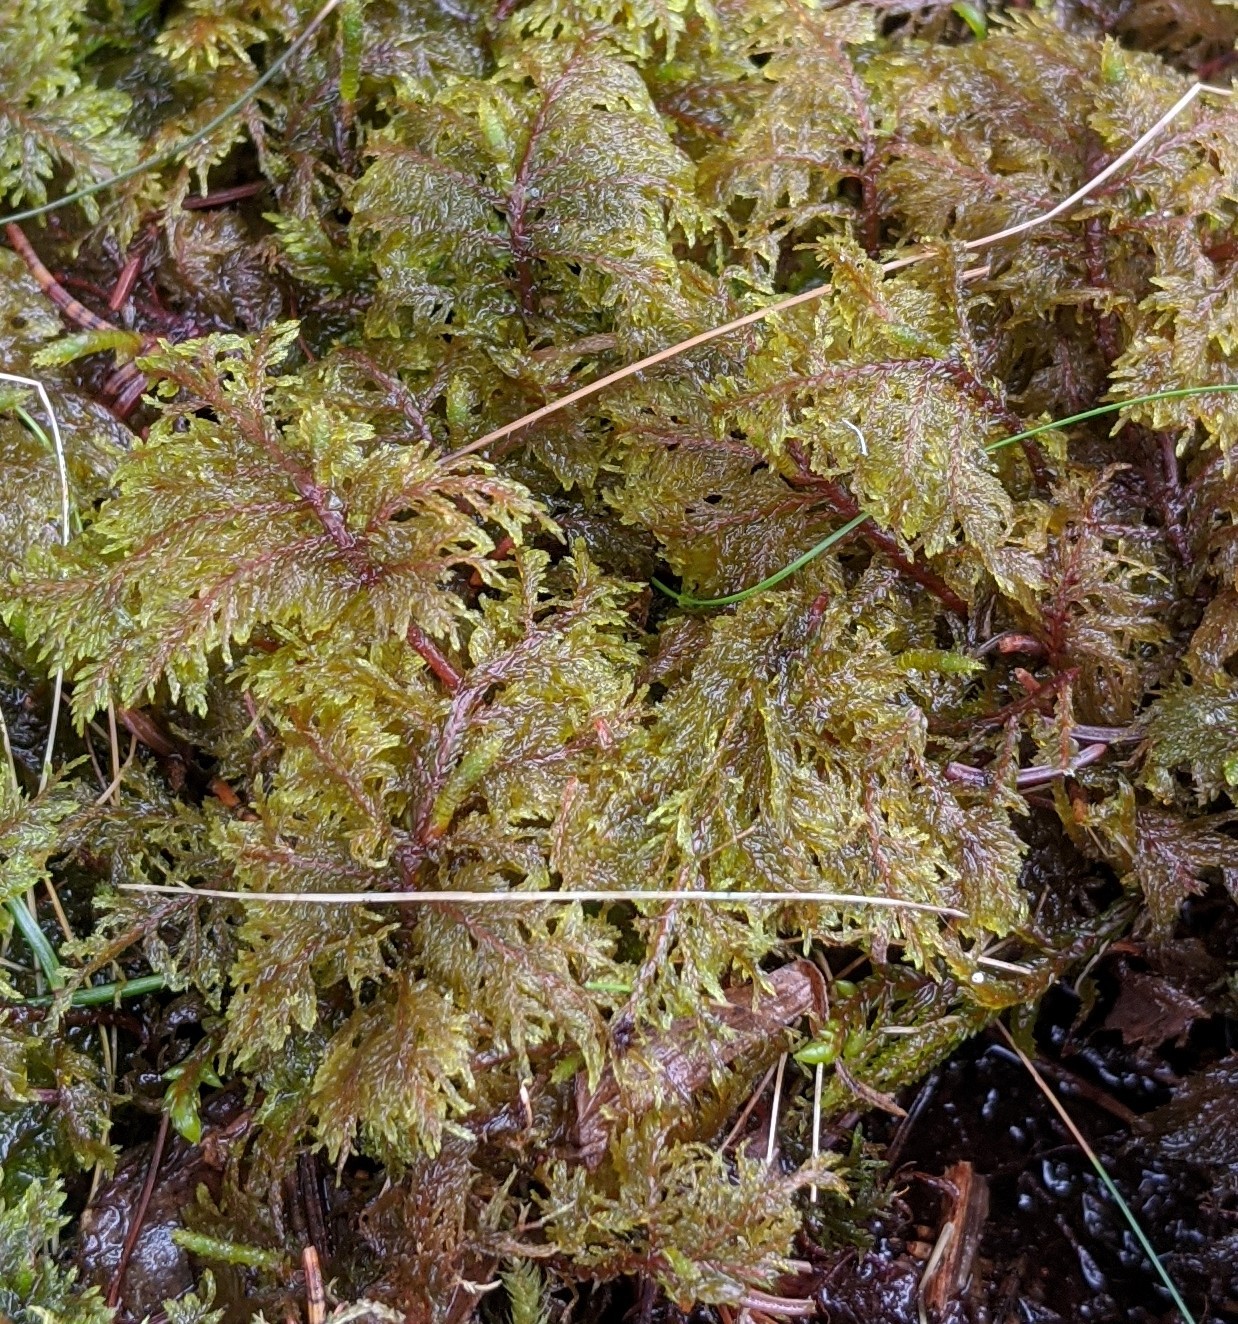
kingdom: Plantae
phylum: Bryophyta
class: Bryopsida
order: Hypnales
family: Hylocomiaceae
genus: Hylocomium
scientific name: Hylocomium splendens
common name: Stairstep moss
